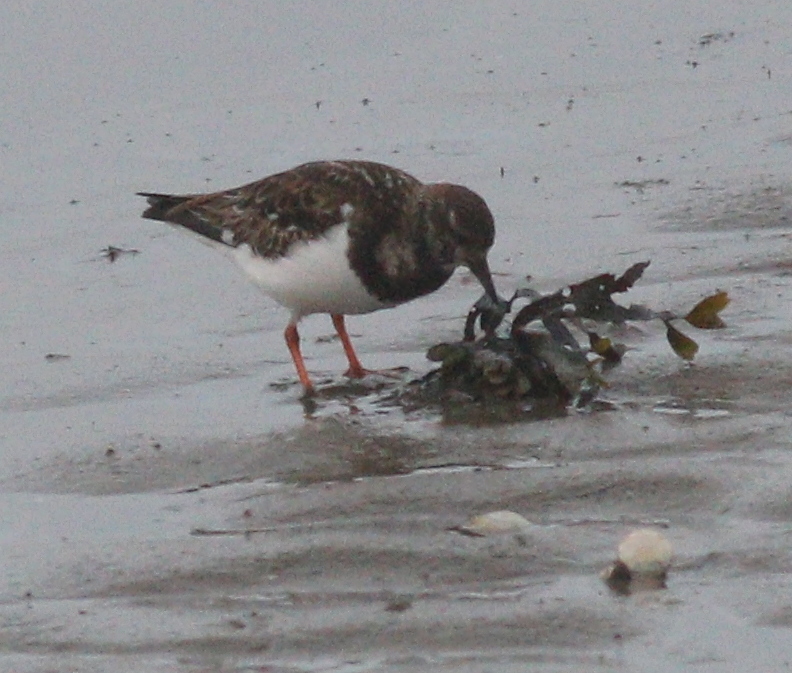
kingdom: Animalia
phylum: Chordata
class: Aves
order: Charadriiformes
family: Scolopacidae
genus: Arenaria
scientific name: Arenaria interpres
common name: Ruddy turnstone
